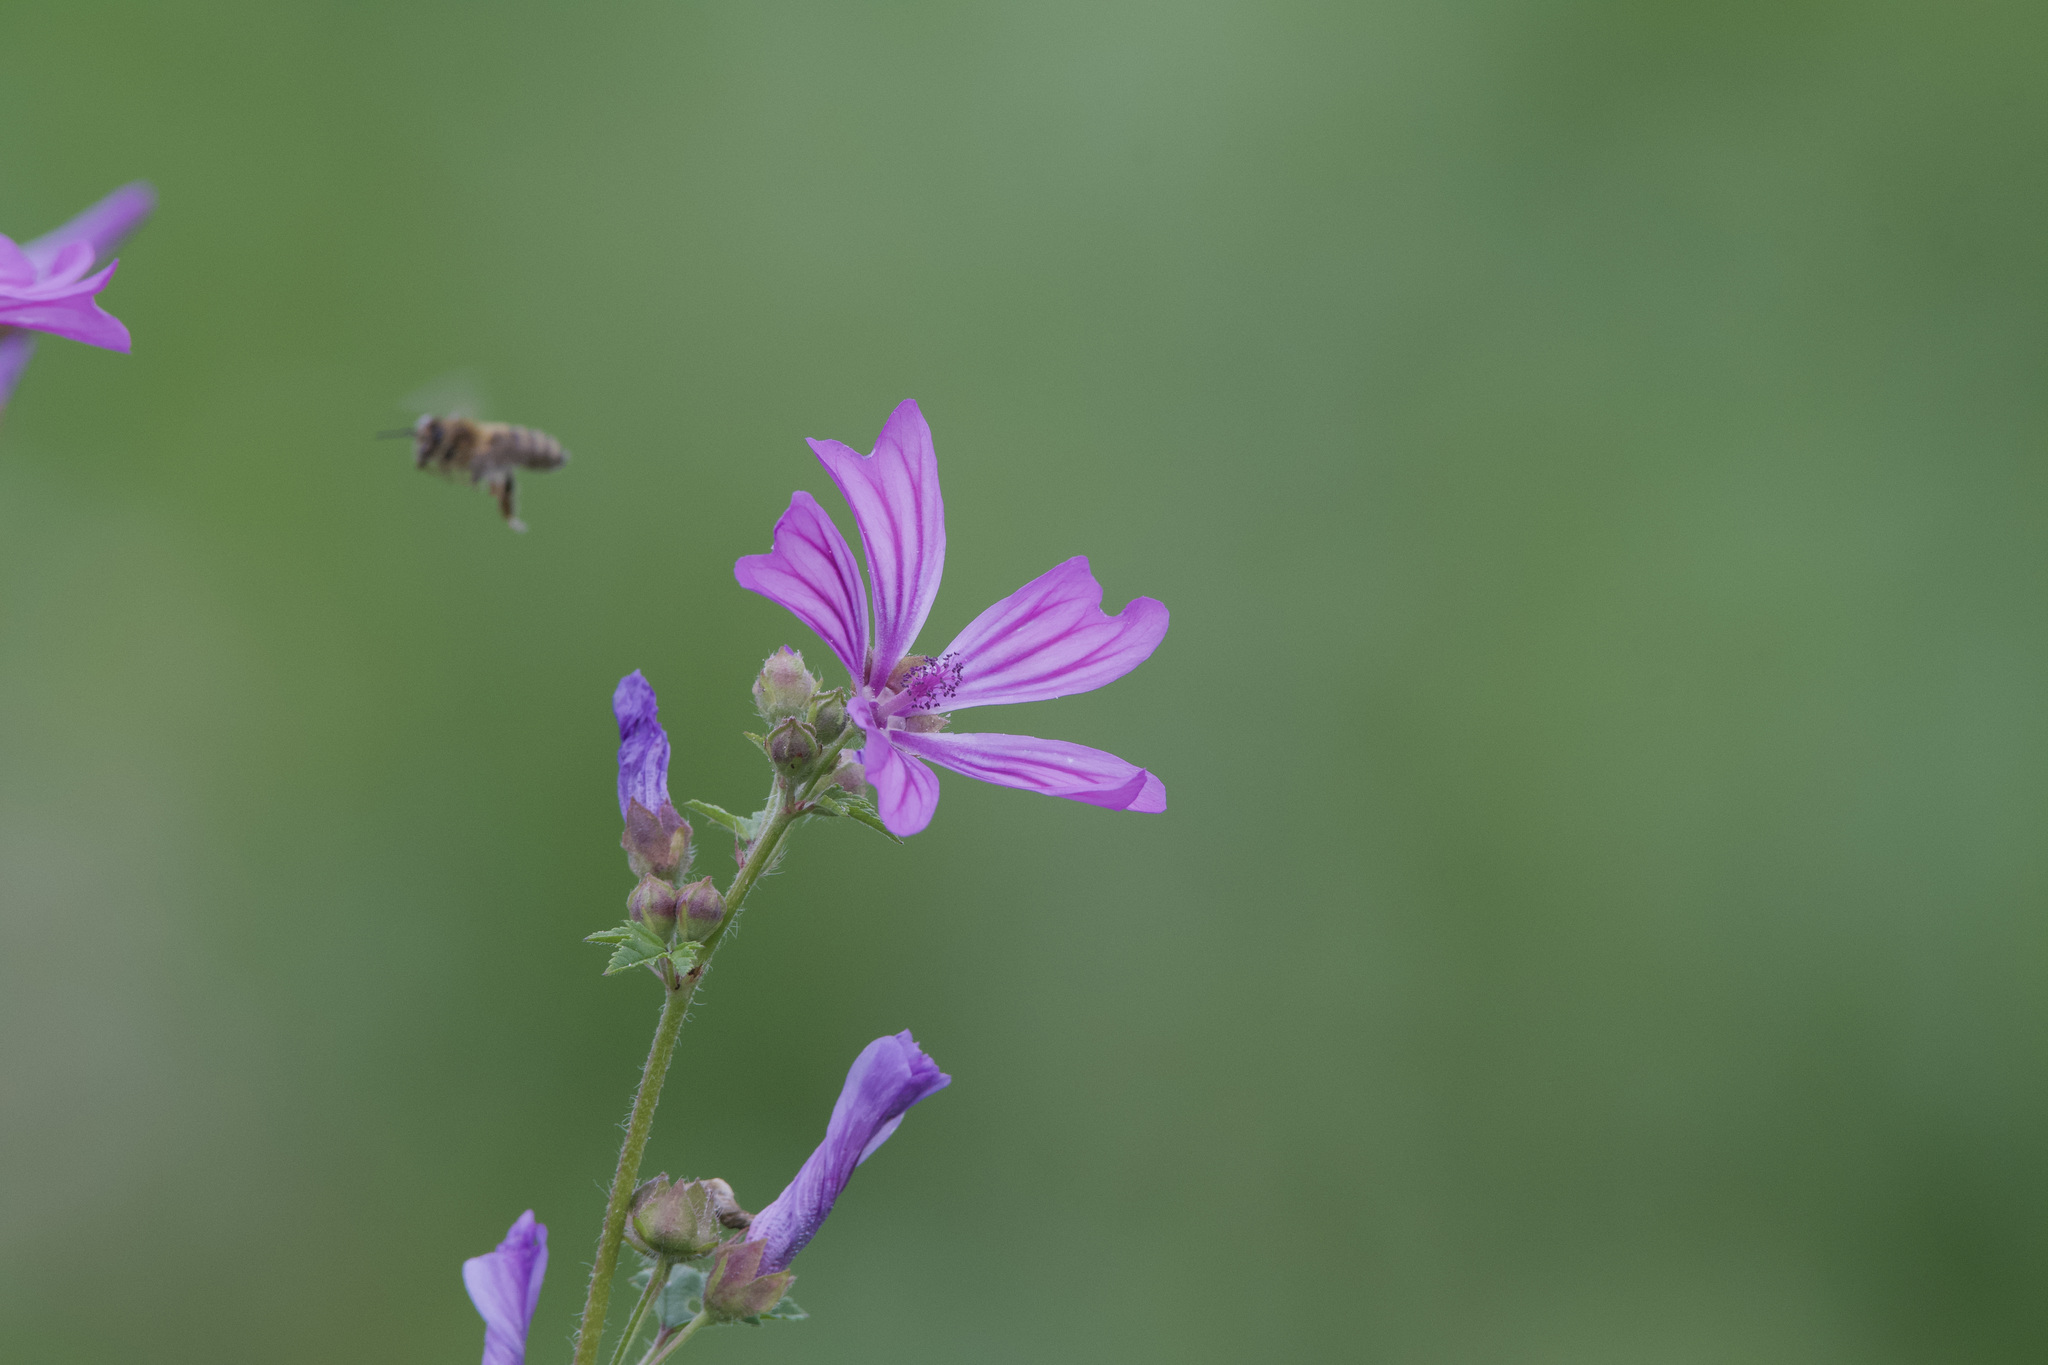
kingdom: Plantae
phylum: Tracheophyta
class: Magnoliopsida
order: Malvales
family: Malvaceae
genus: Malva
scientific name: Malva sylvestris
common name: Common mallow
